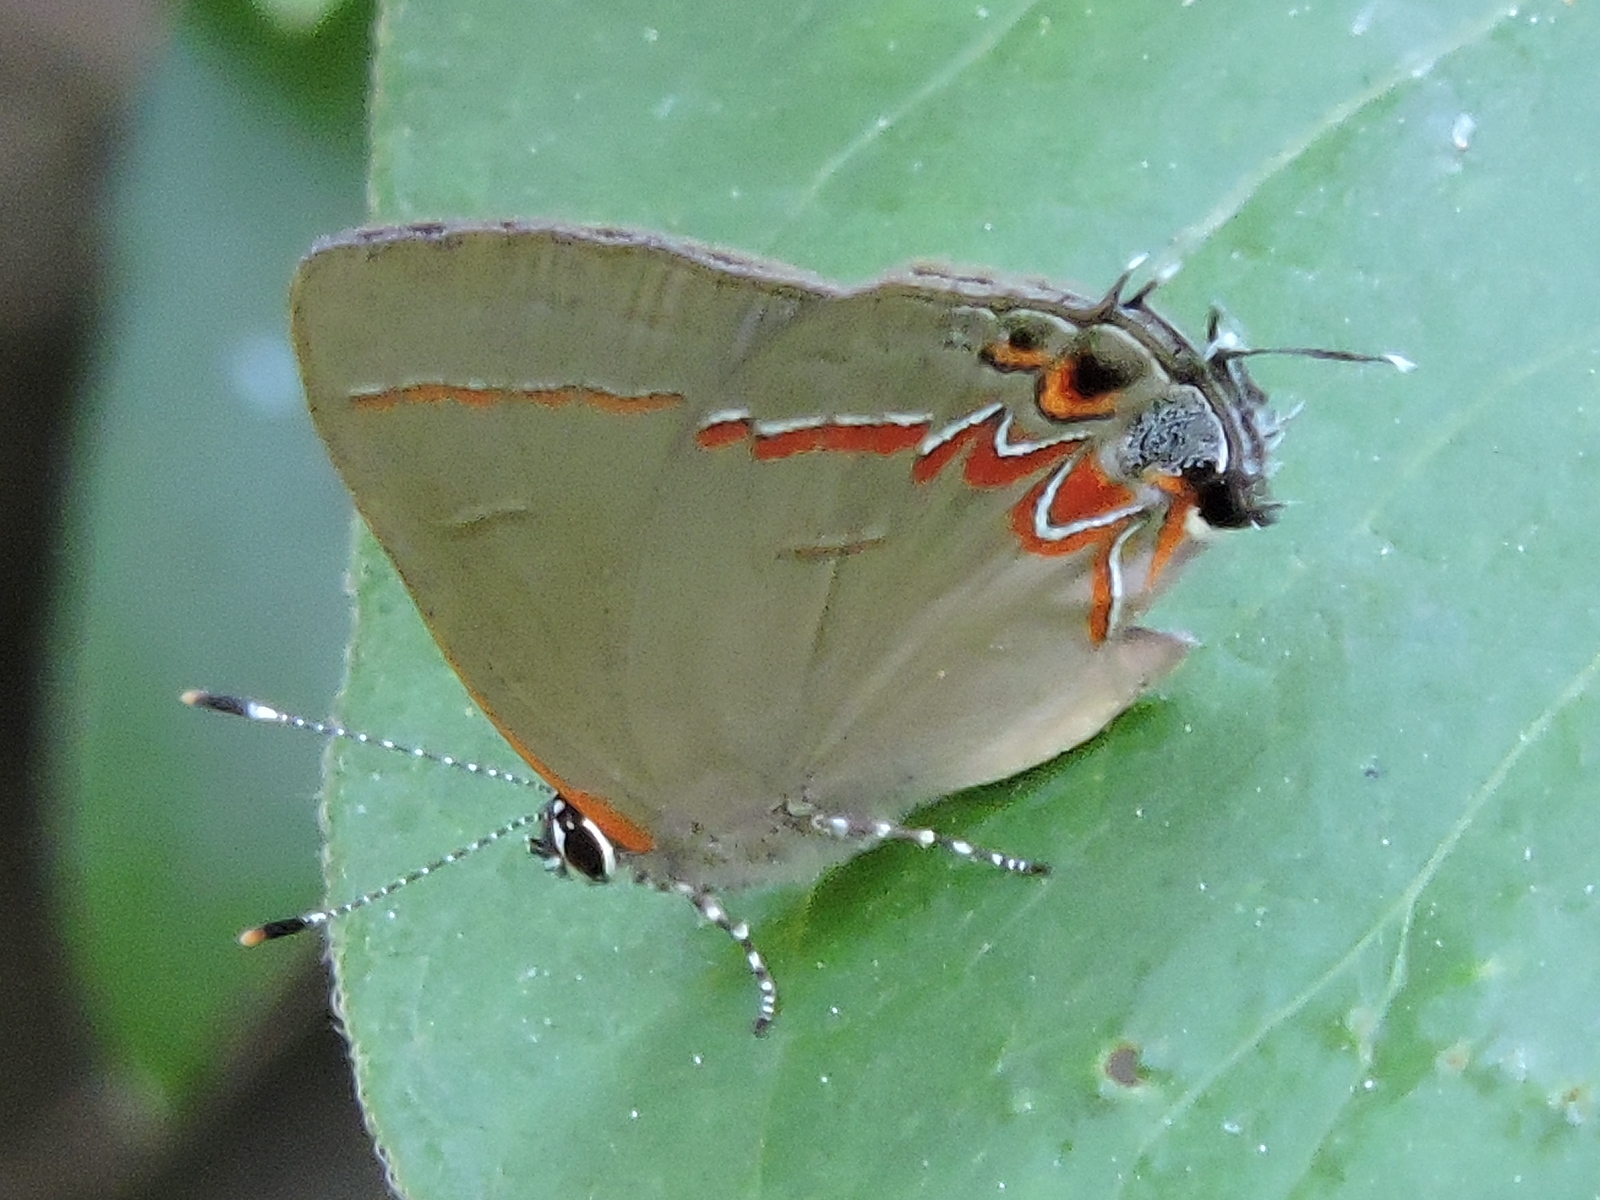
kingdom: Animalia
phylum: Arthropoda
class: Insecta
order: Lepidoptera
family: Lycaenidae
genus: Calycopis
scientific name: Calycopis cecrops
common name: Red-banded hairstreak
